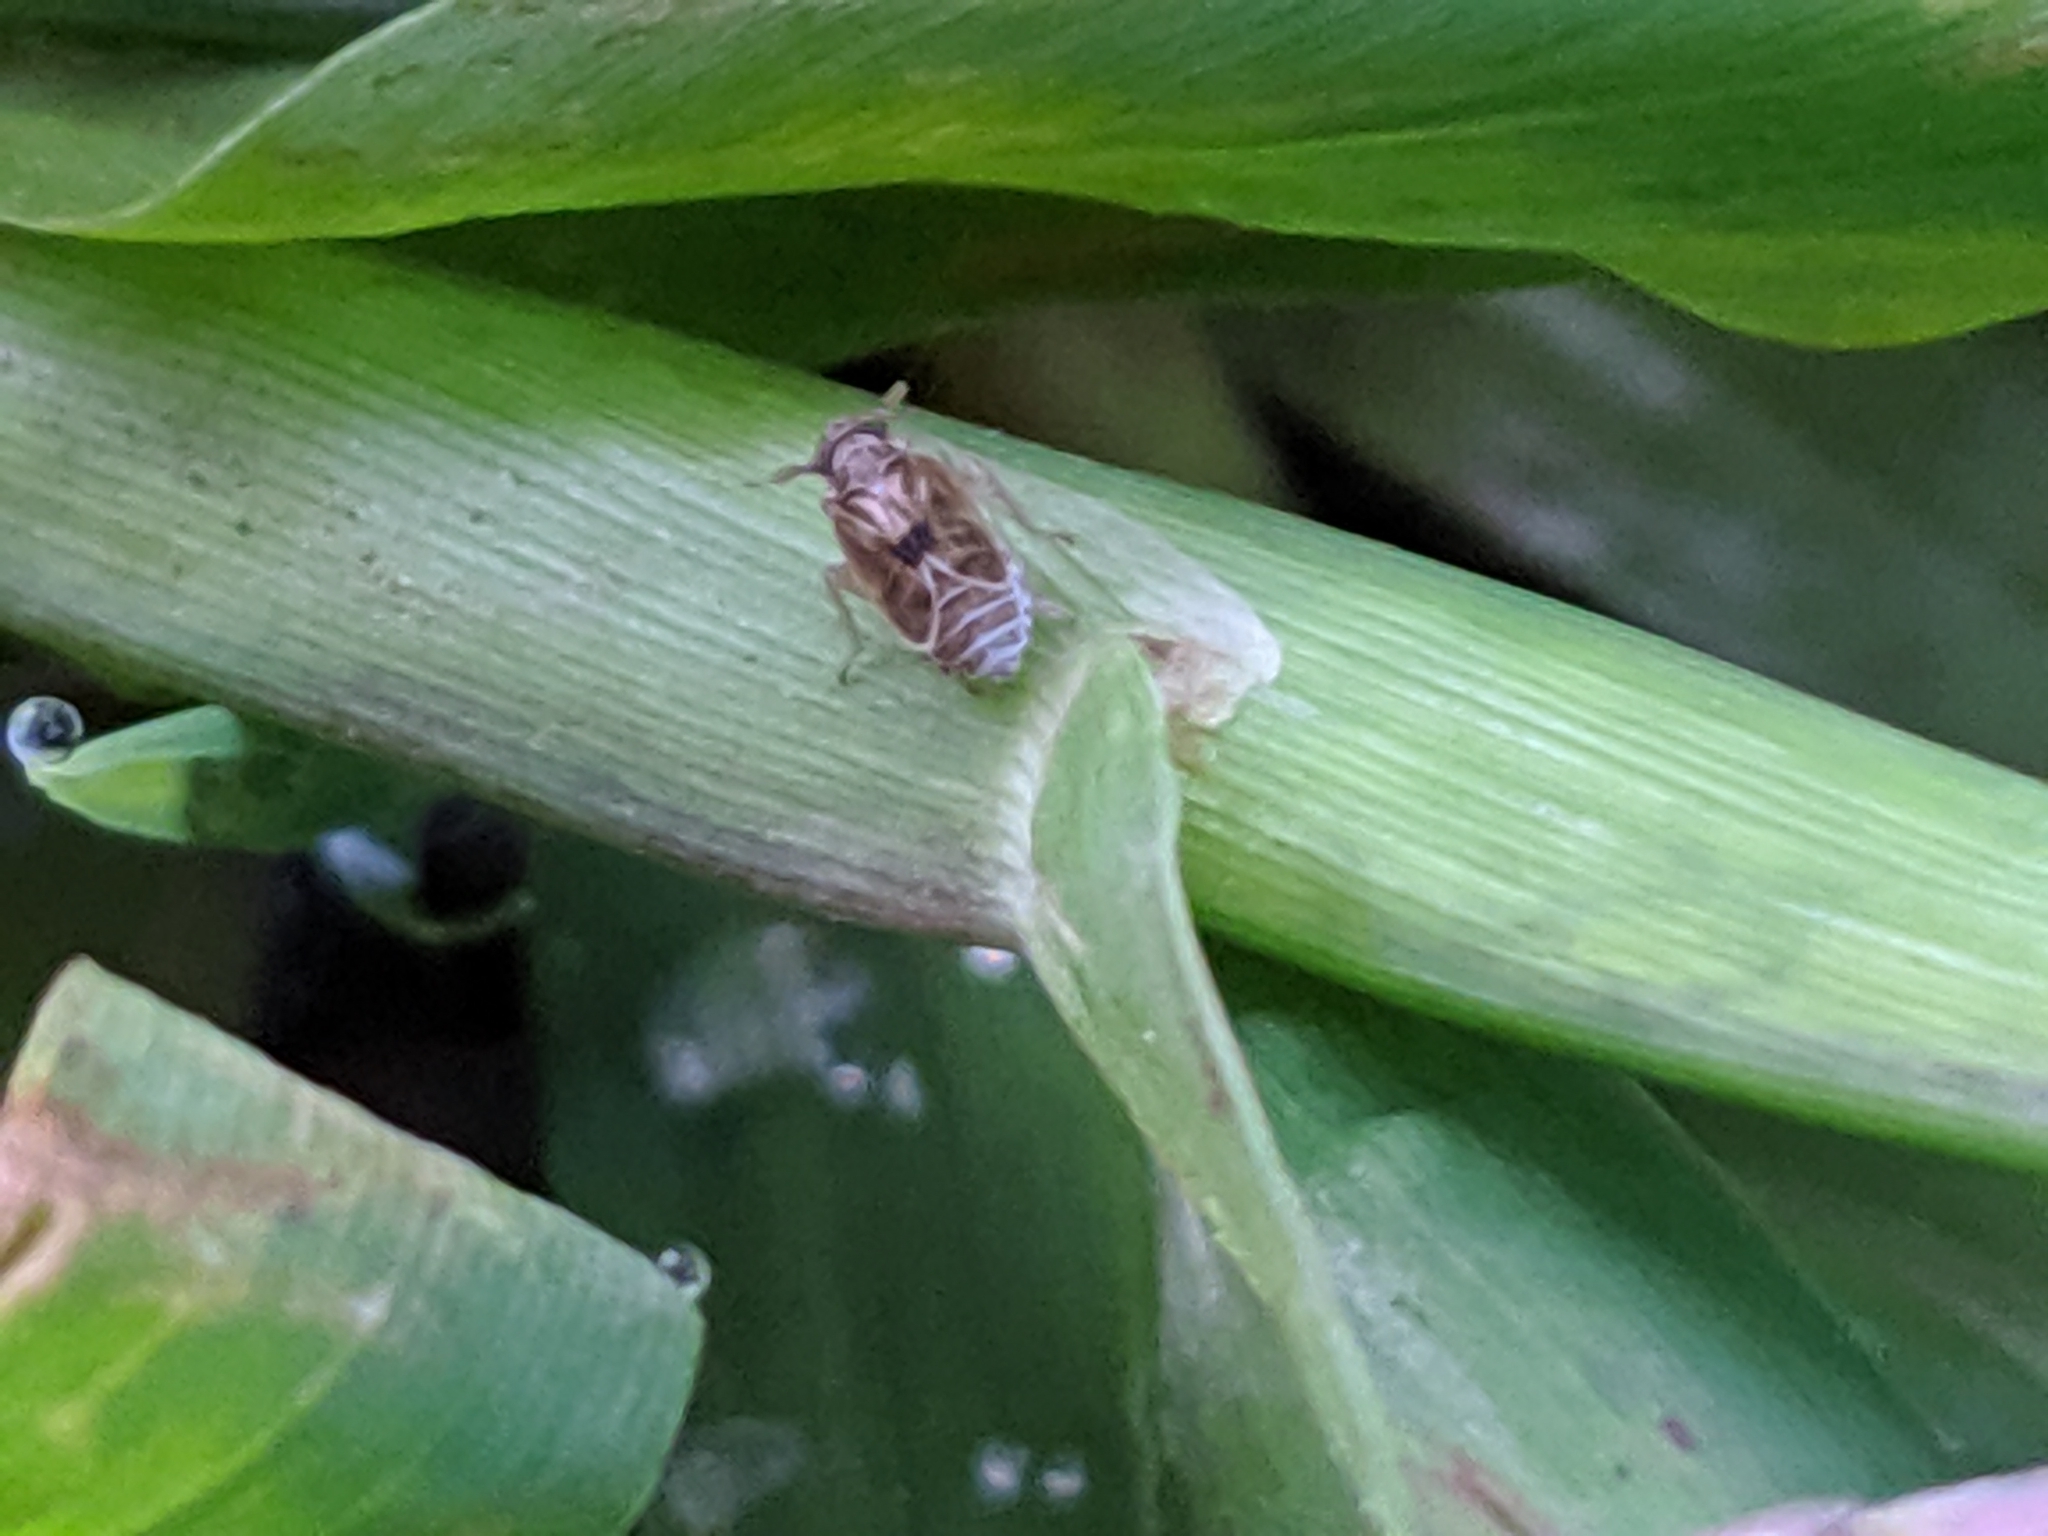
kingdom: Animalia
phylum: Arthropoda
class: Insecta
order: Hemiptera
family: Delphacidae
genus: Chionomus
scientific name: Chionomus
